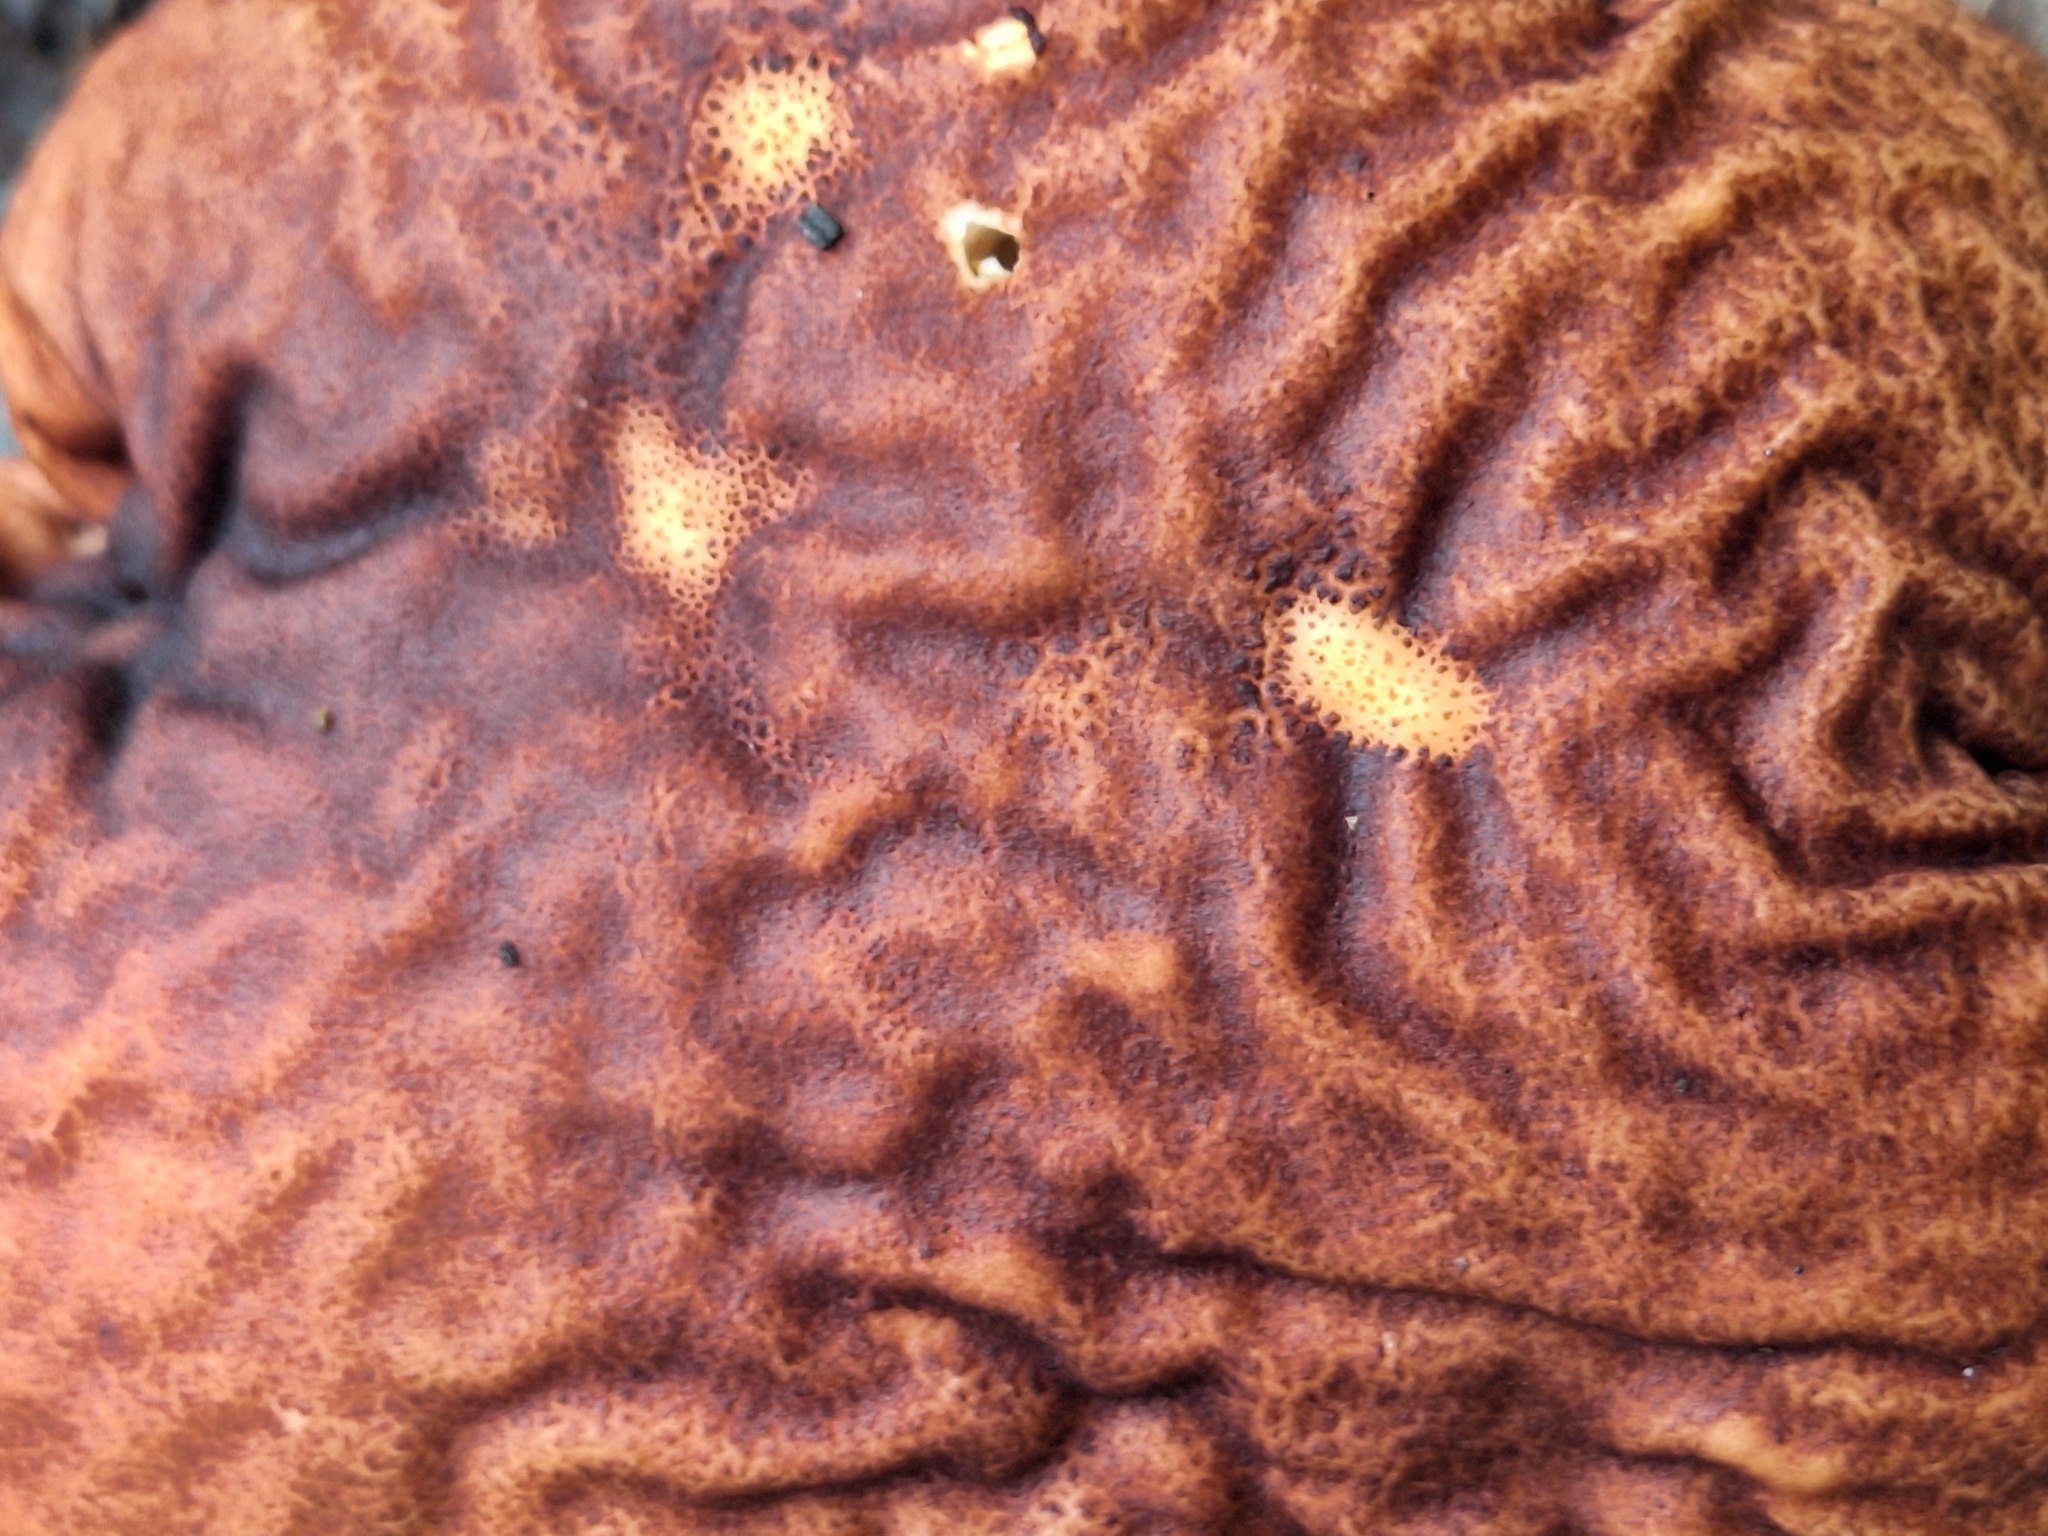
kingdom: Fungi
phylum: Basidiomycota
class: Agaricomycetes
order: Agaricales
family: Lycoperdaceae
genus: Calvatia
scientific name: Calvatia craniiformis
